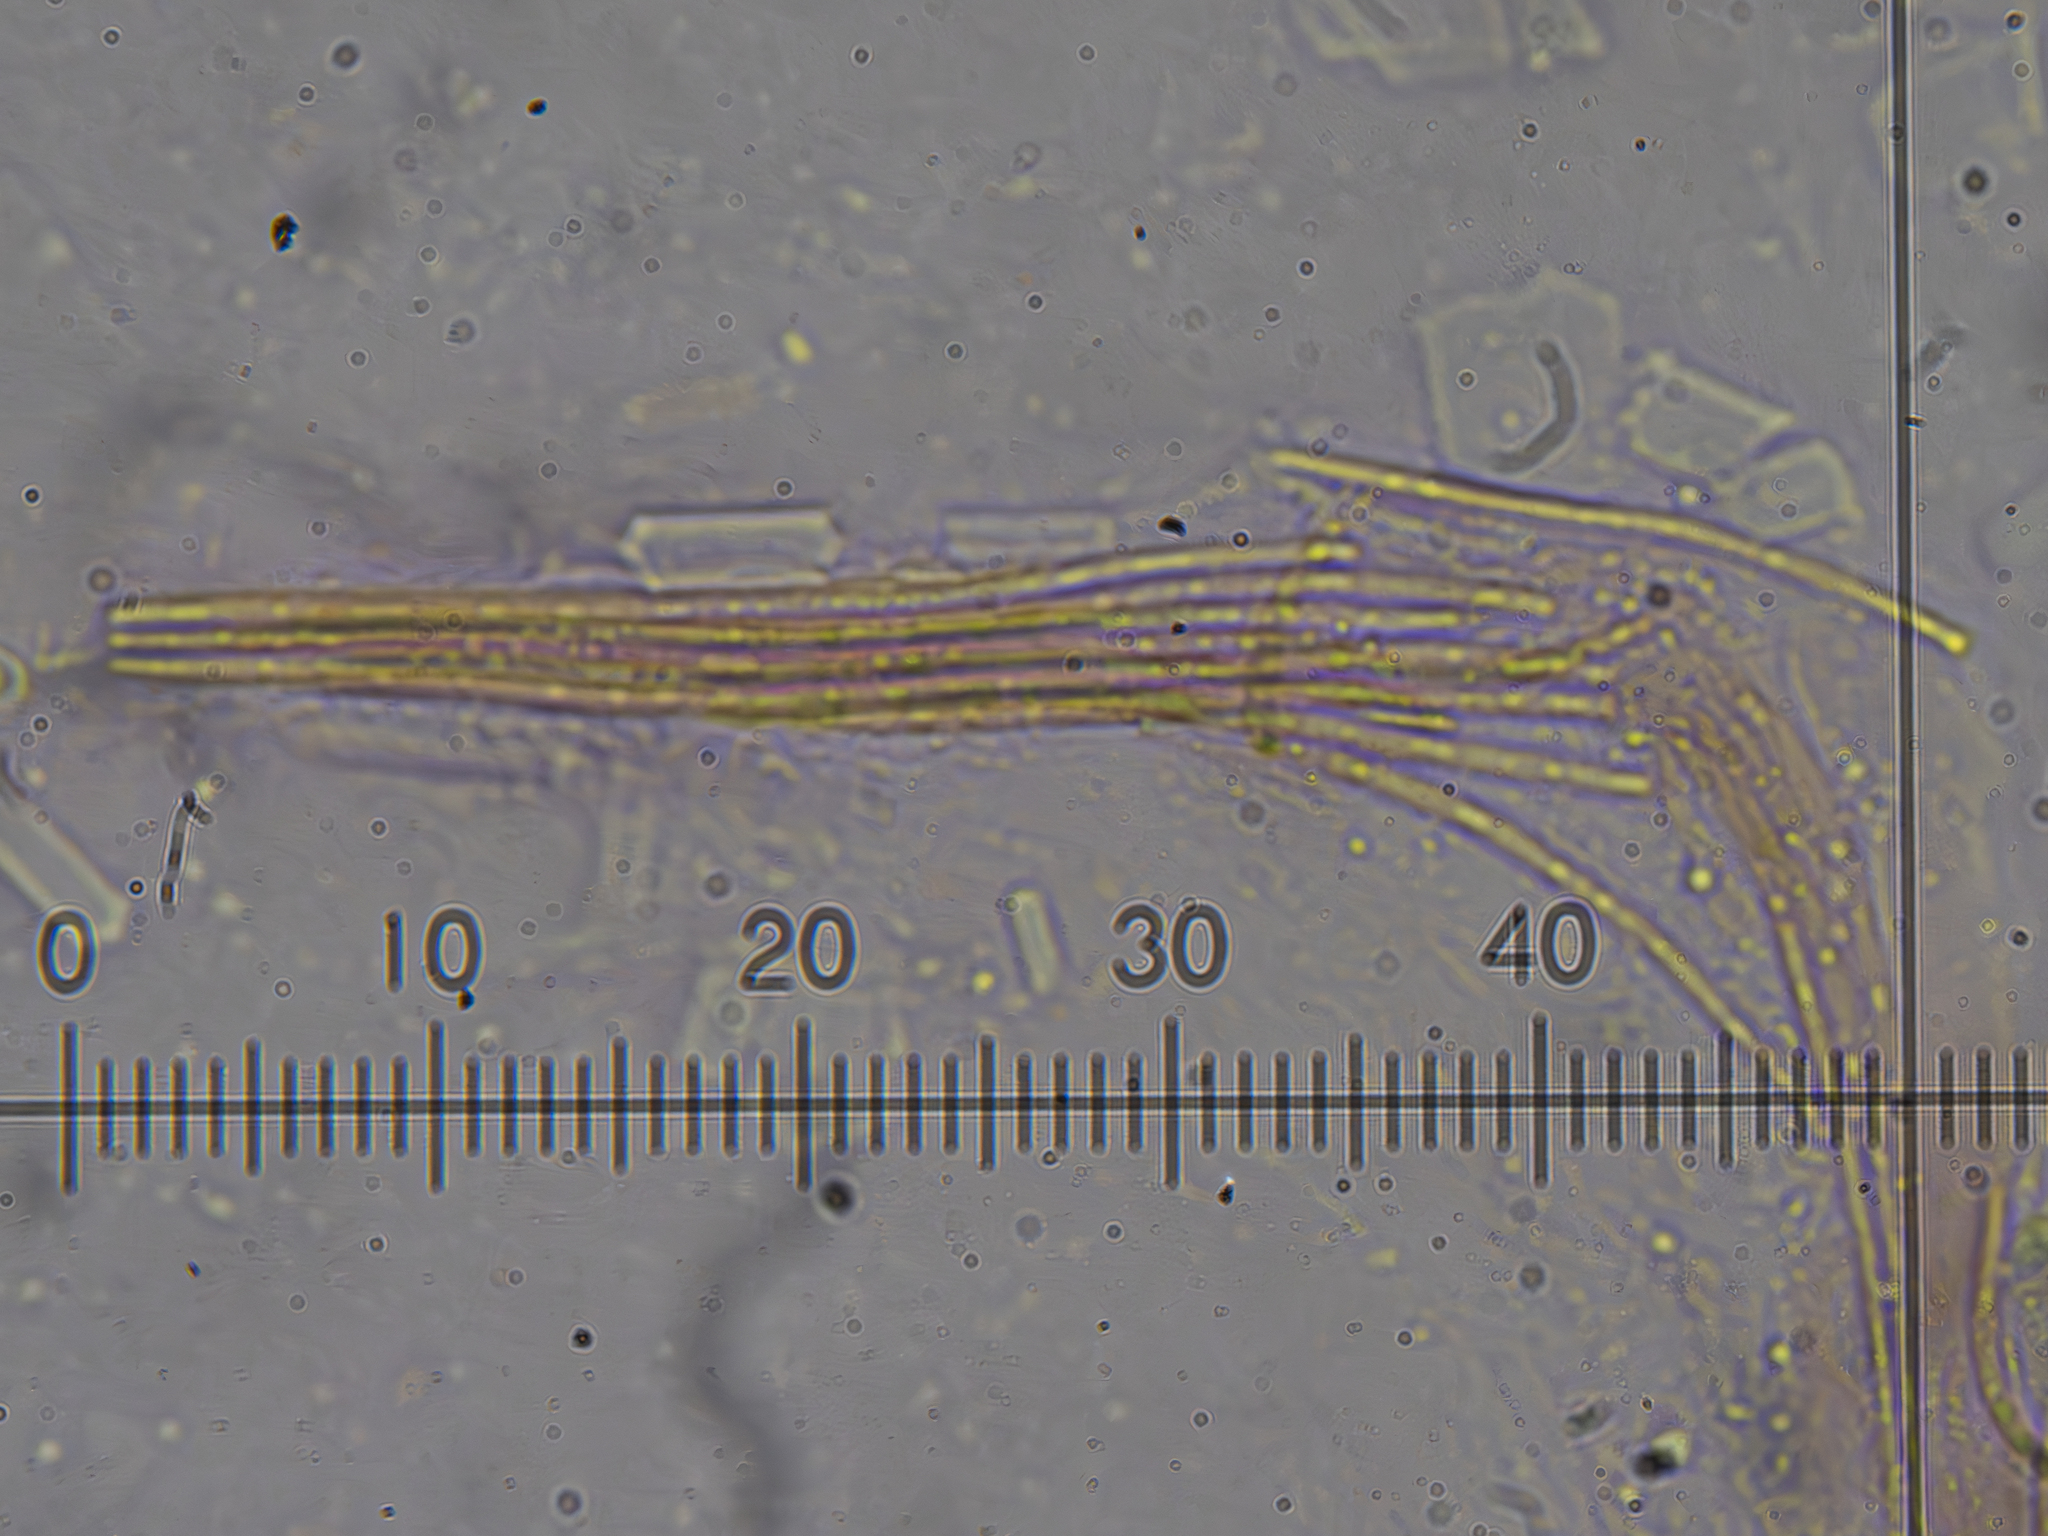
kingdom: Fungi
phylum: Ascomycota
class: Sordariomycetes
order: Hypocreales
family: Clavicipitaceae
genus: Epichloe
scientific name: Epichloe typhina
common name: Choke
